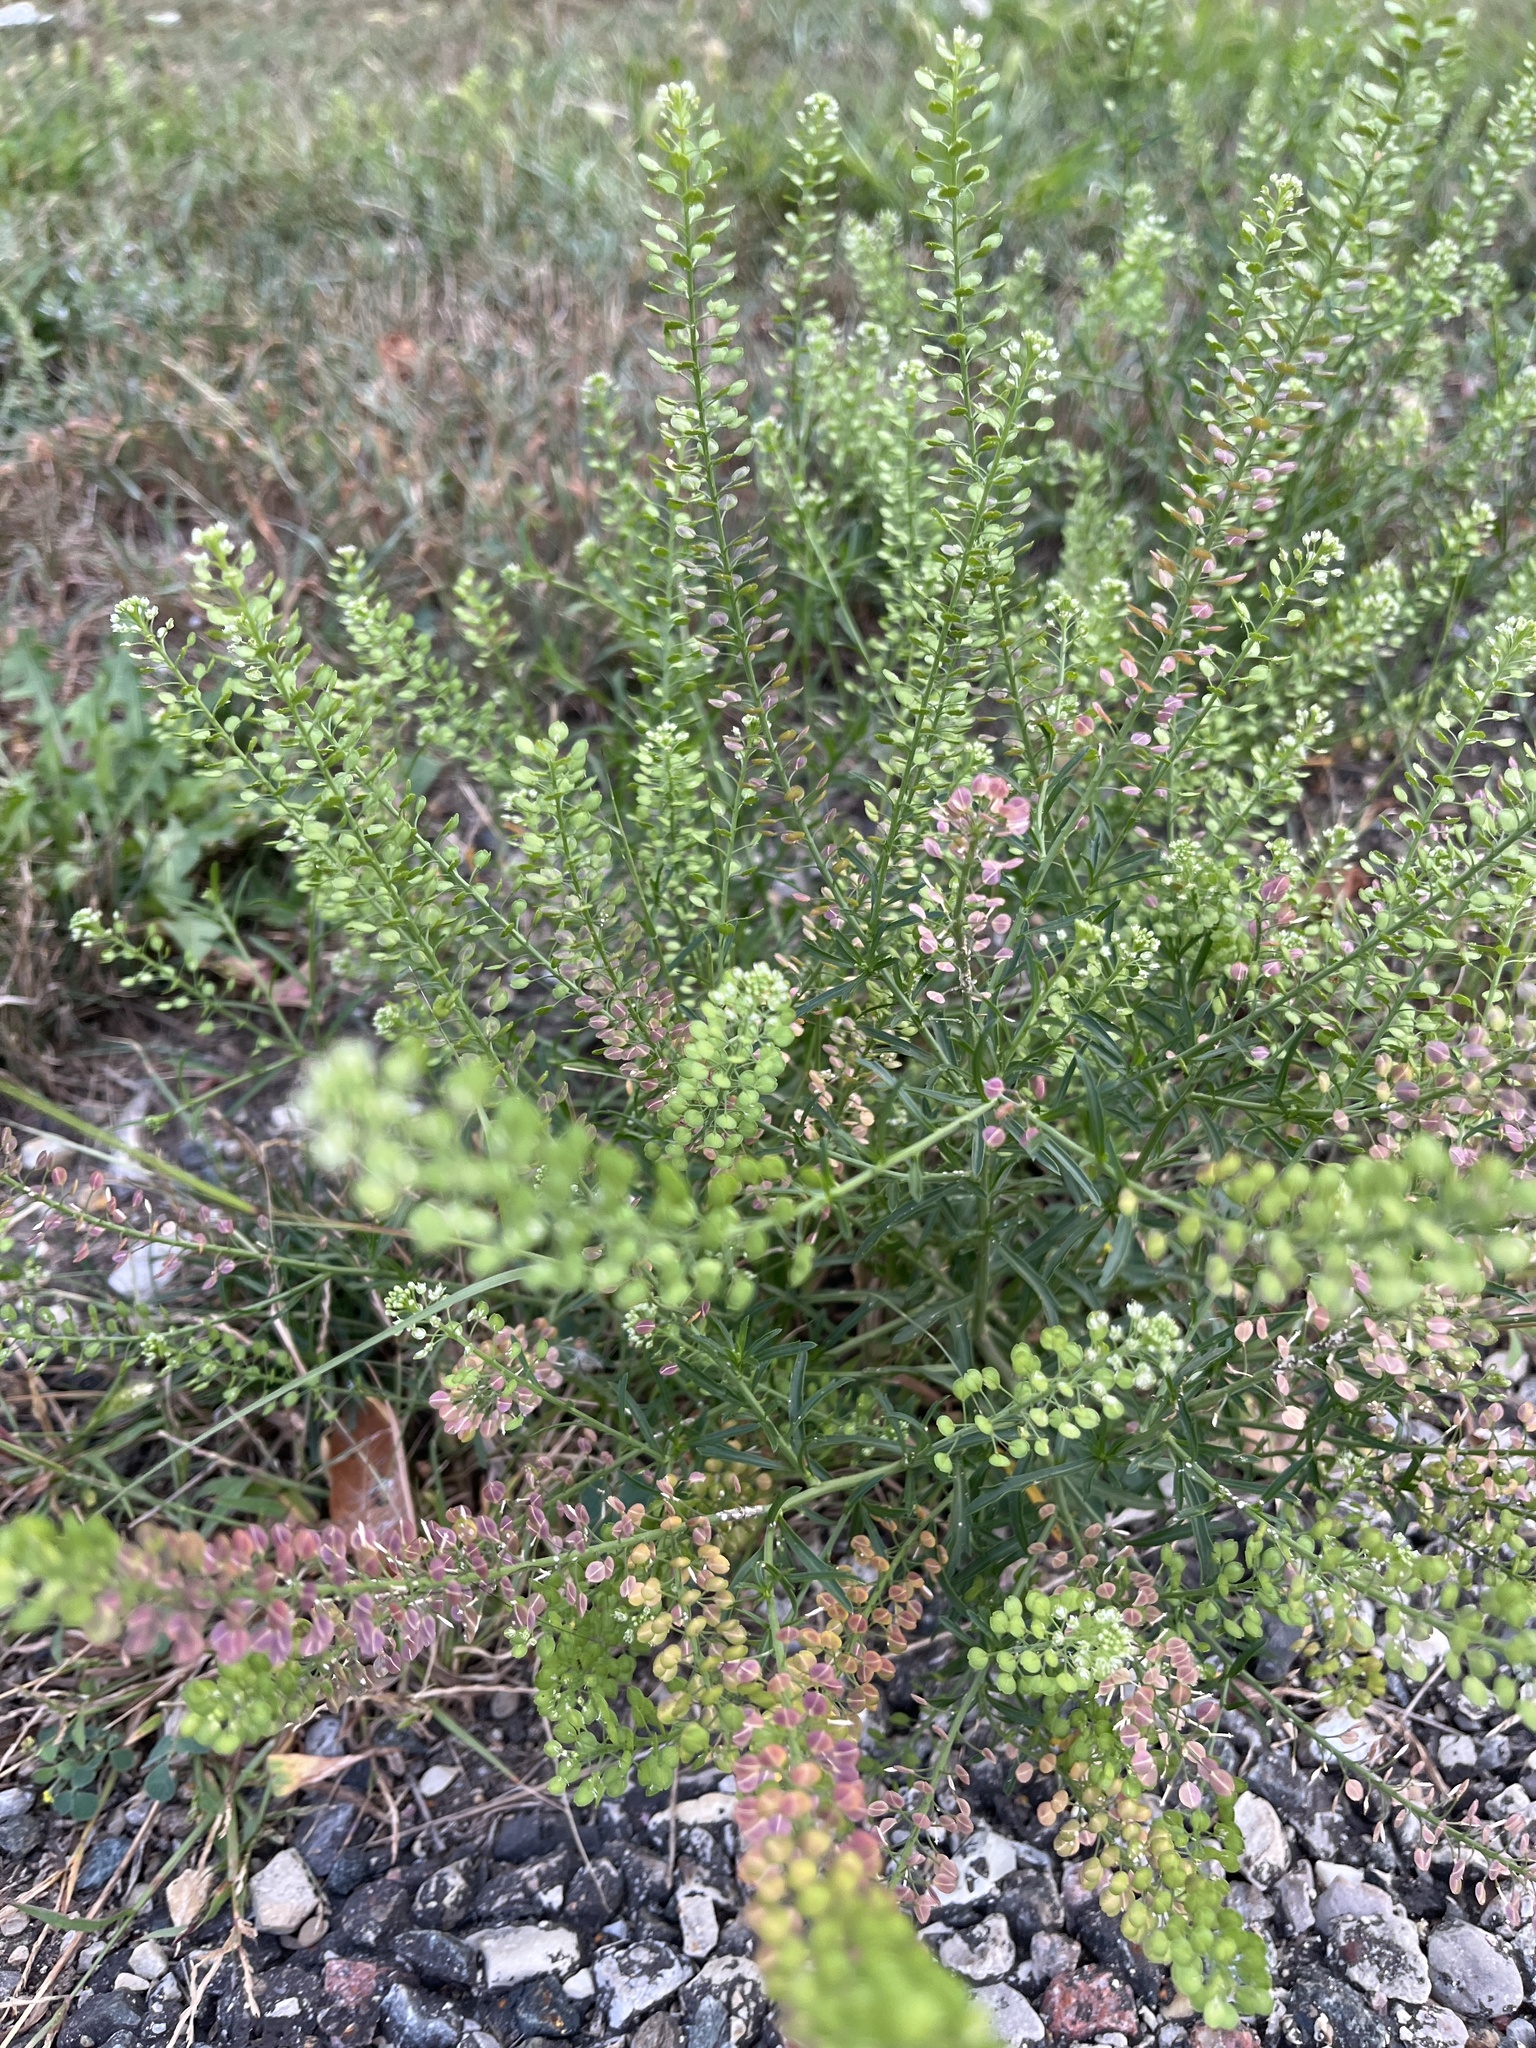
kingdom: Plantae
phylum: Tracheophyta
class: Magnoliopsida
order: Brassicales
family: Brassicaceae
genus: Lepidium
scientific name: Lepidium virginicum
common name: Least pepperwort
